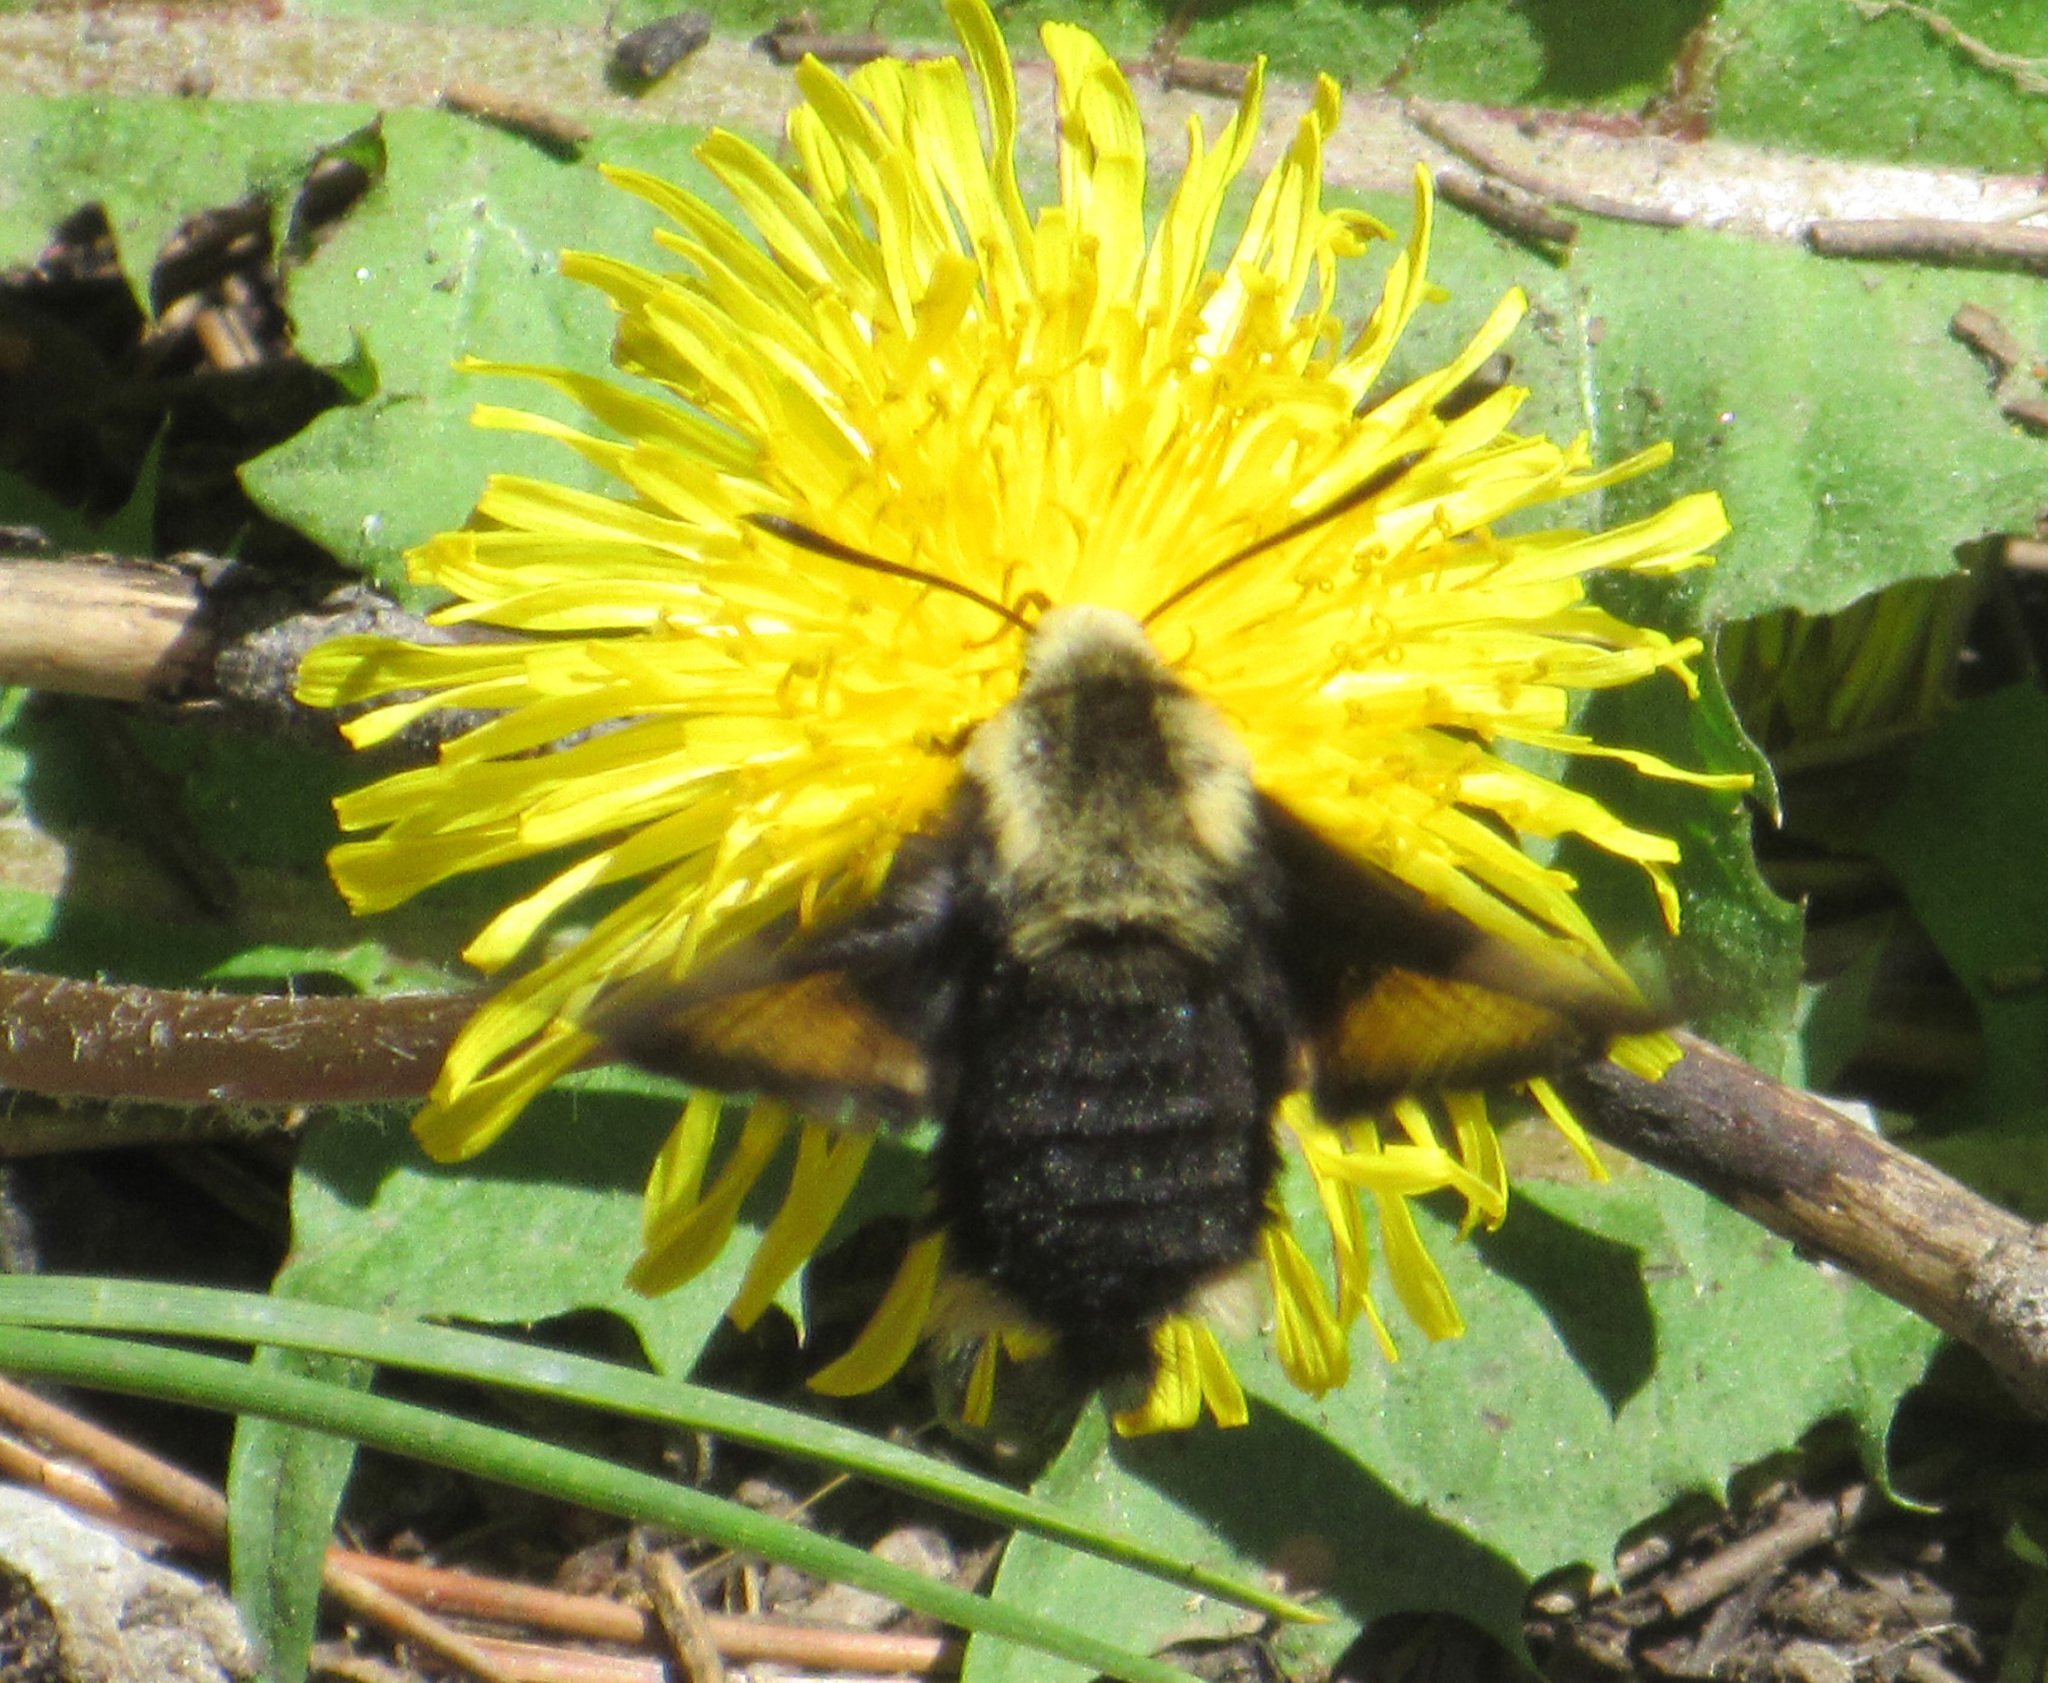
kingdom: Animalia
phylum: Arthropoda
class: Insecta
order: Lepidoptera
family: Sphingidae
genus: Proserpinus
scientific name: Proserpinus flavofasciata
